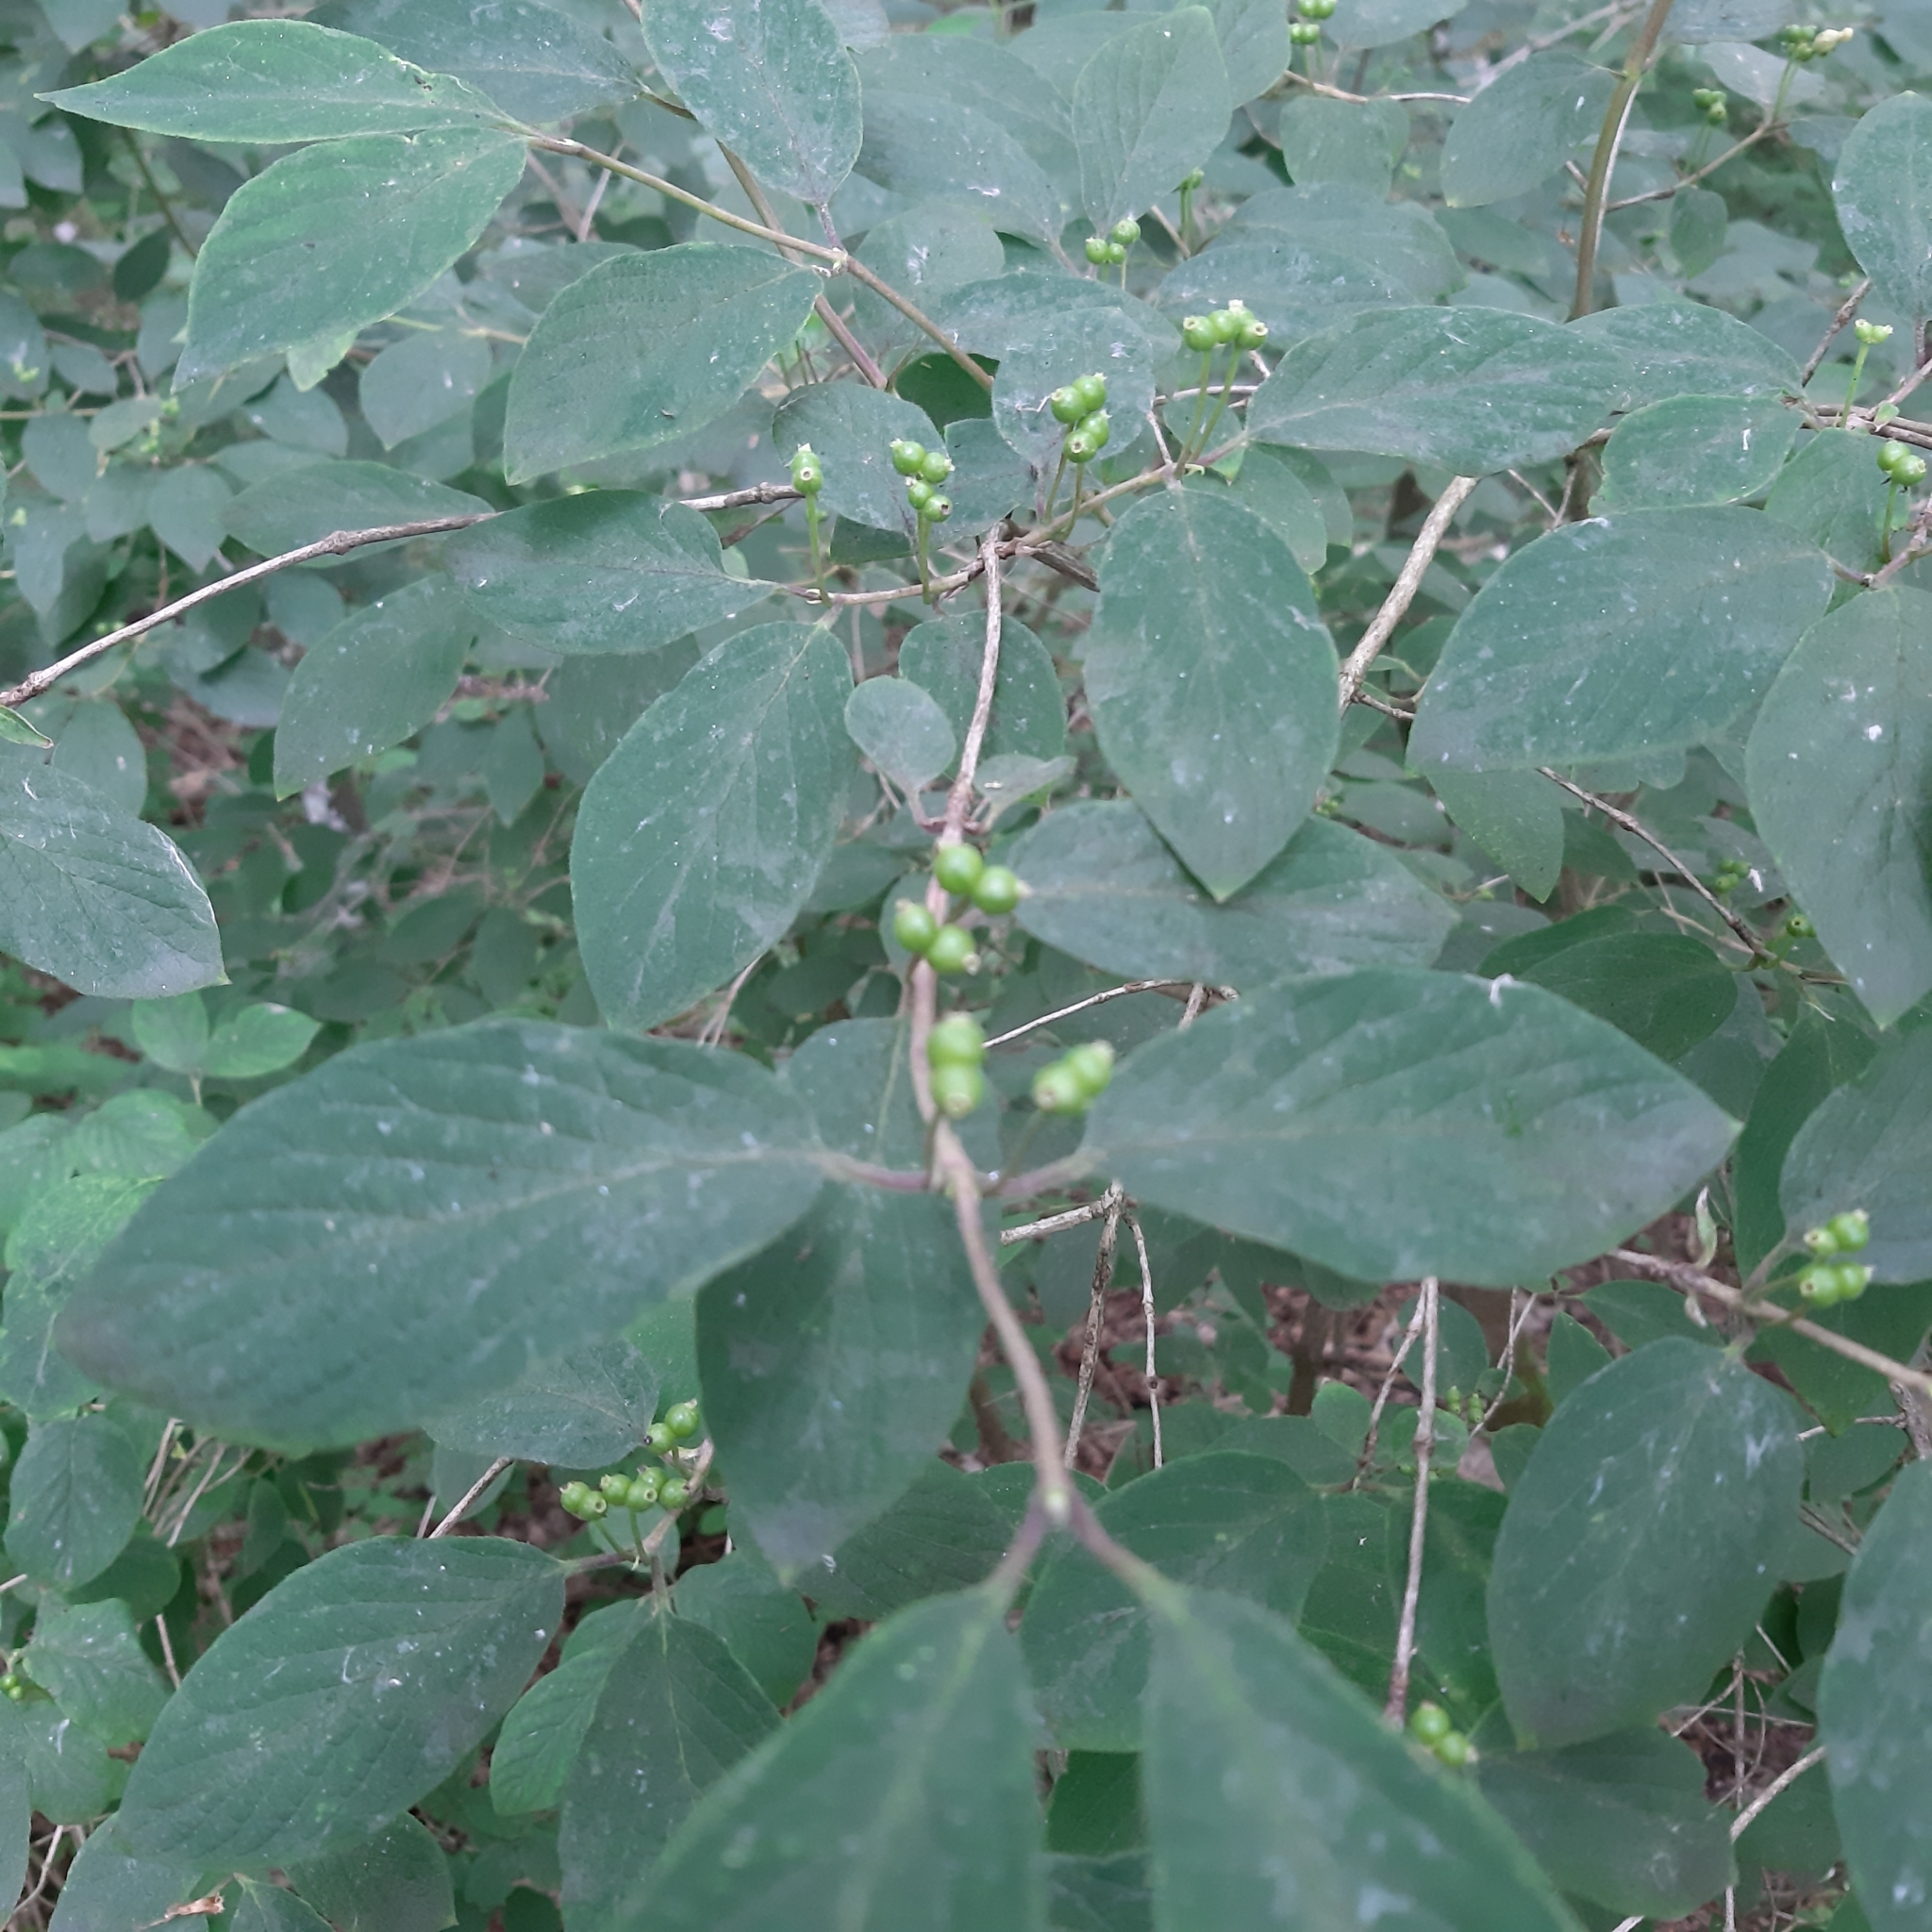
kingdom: Plantae
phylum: Tracheophyta
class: Magnoliopsida
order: Dipsacales
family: Caprifoliaceae
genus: Lonicera
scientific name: Lonicera xylosteum
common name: Fly honeysuckle
